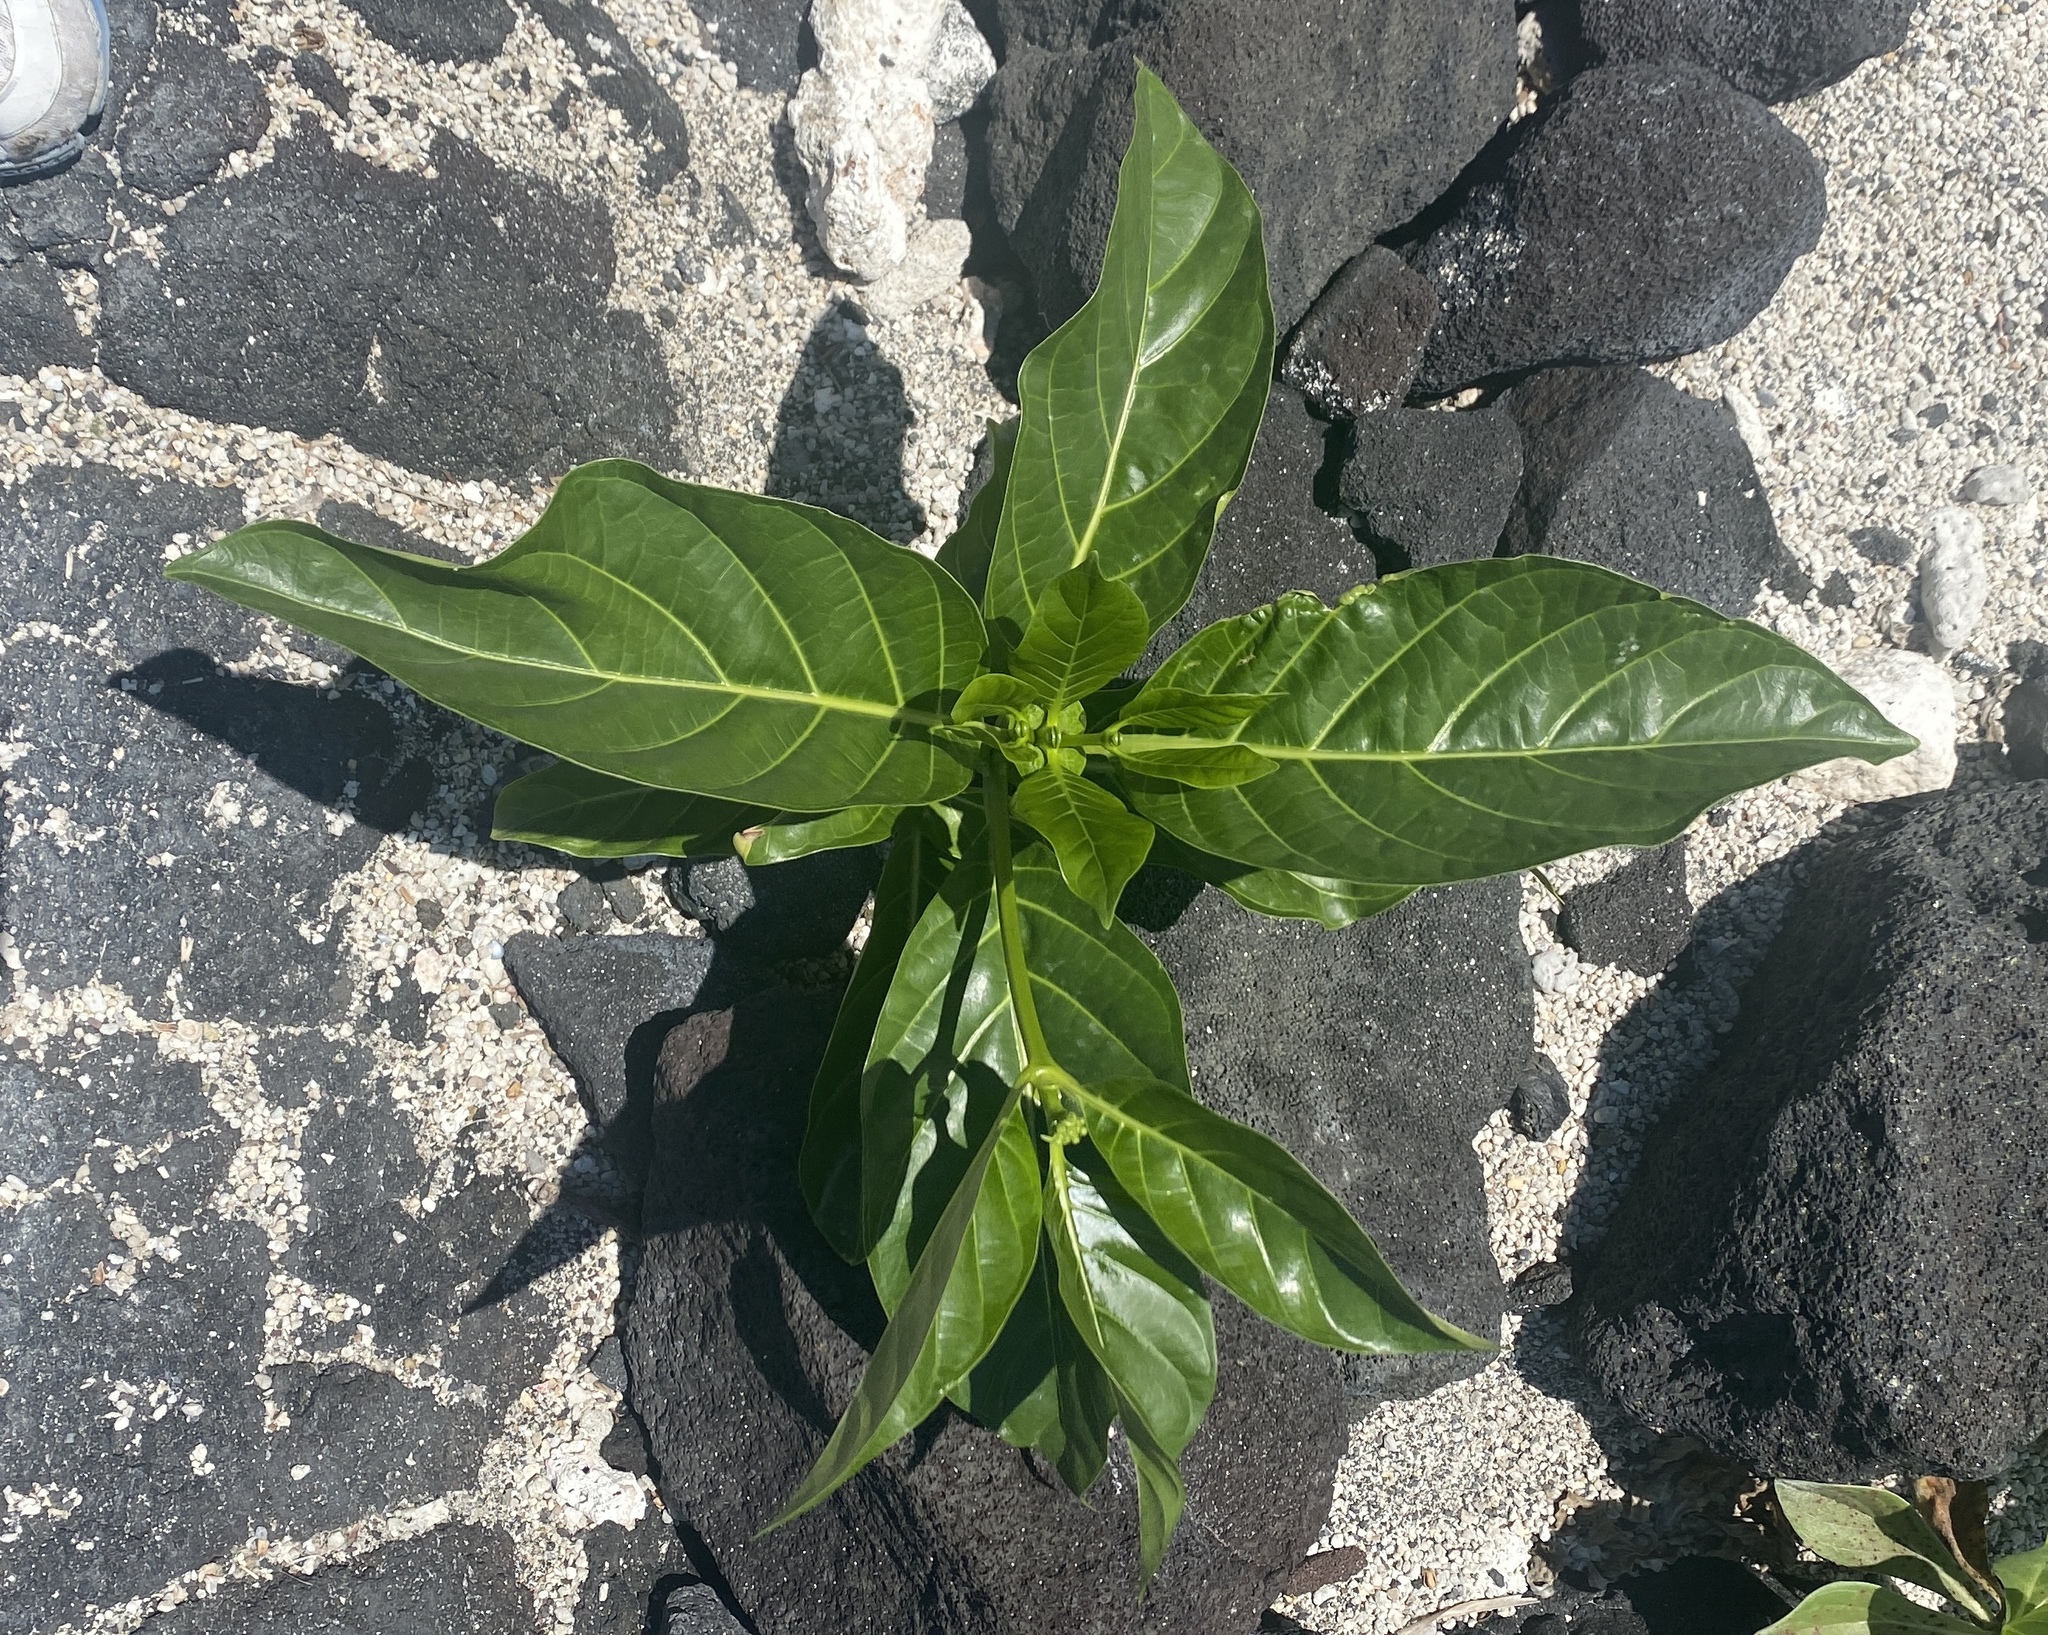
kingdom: Plantae
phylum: Tracheophyta
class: Magnoliopsida
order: Gentianales
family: Rubiaceae
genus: Morinda
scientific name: Morinda citrifolia
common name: Indian-mulberry
